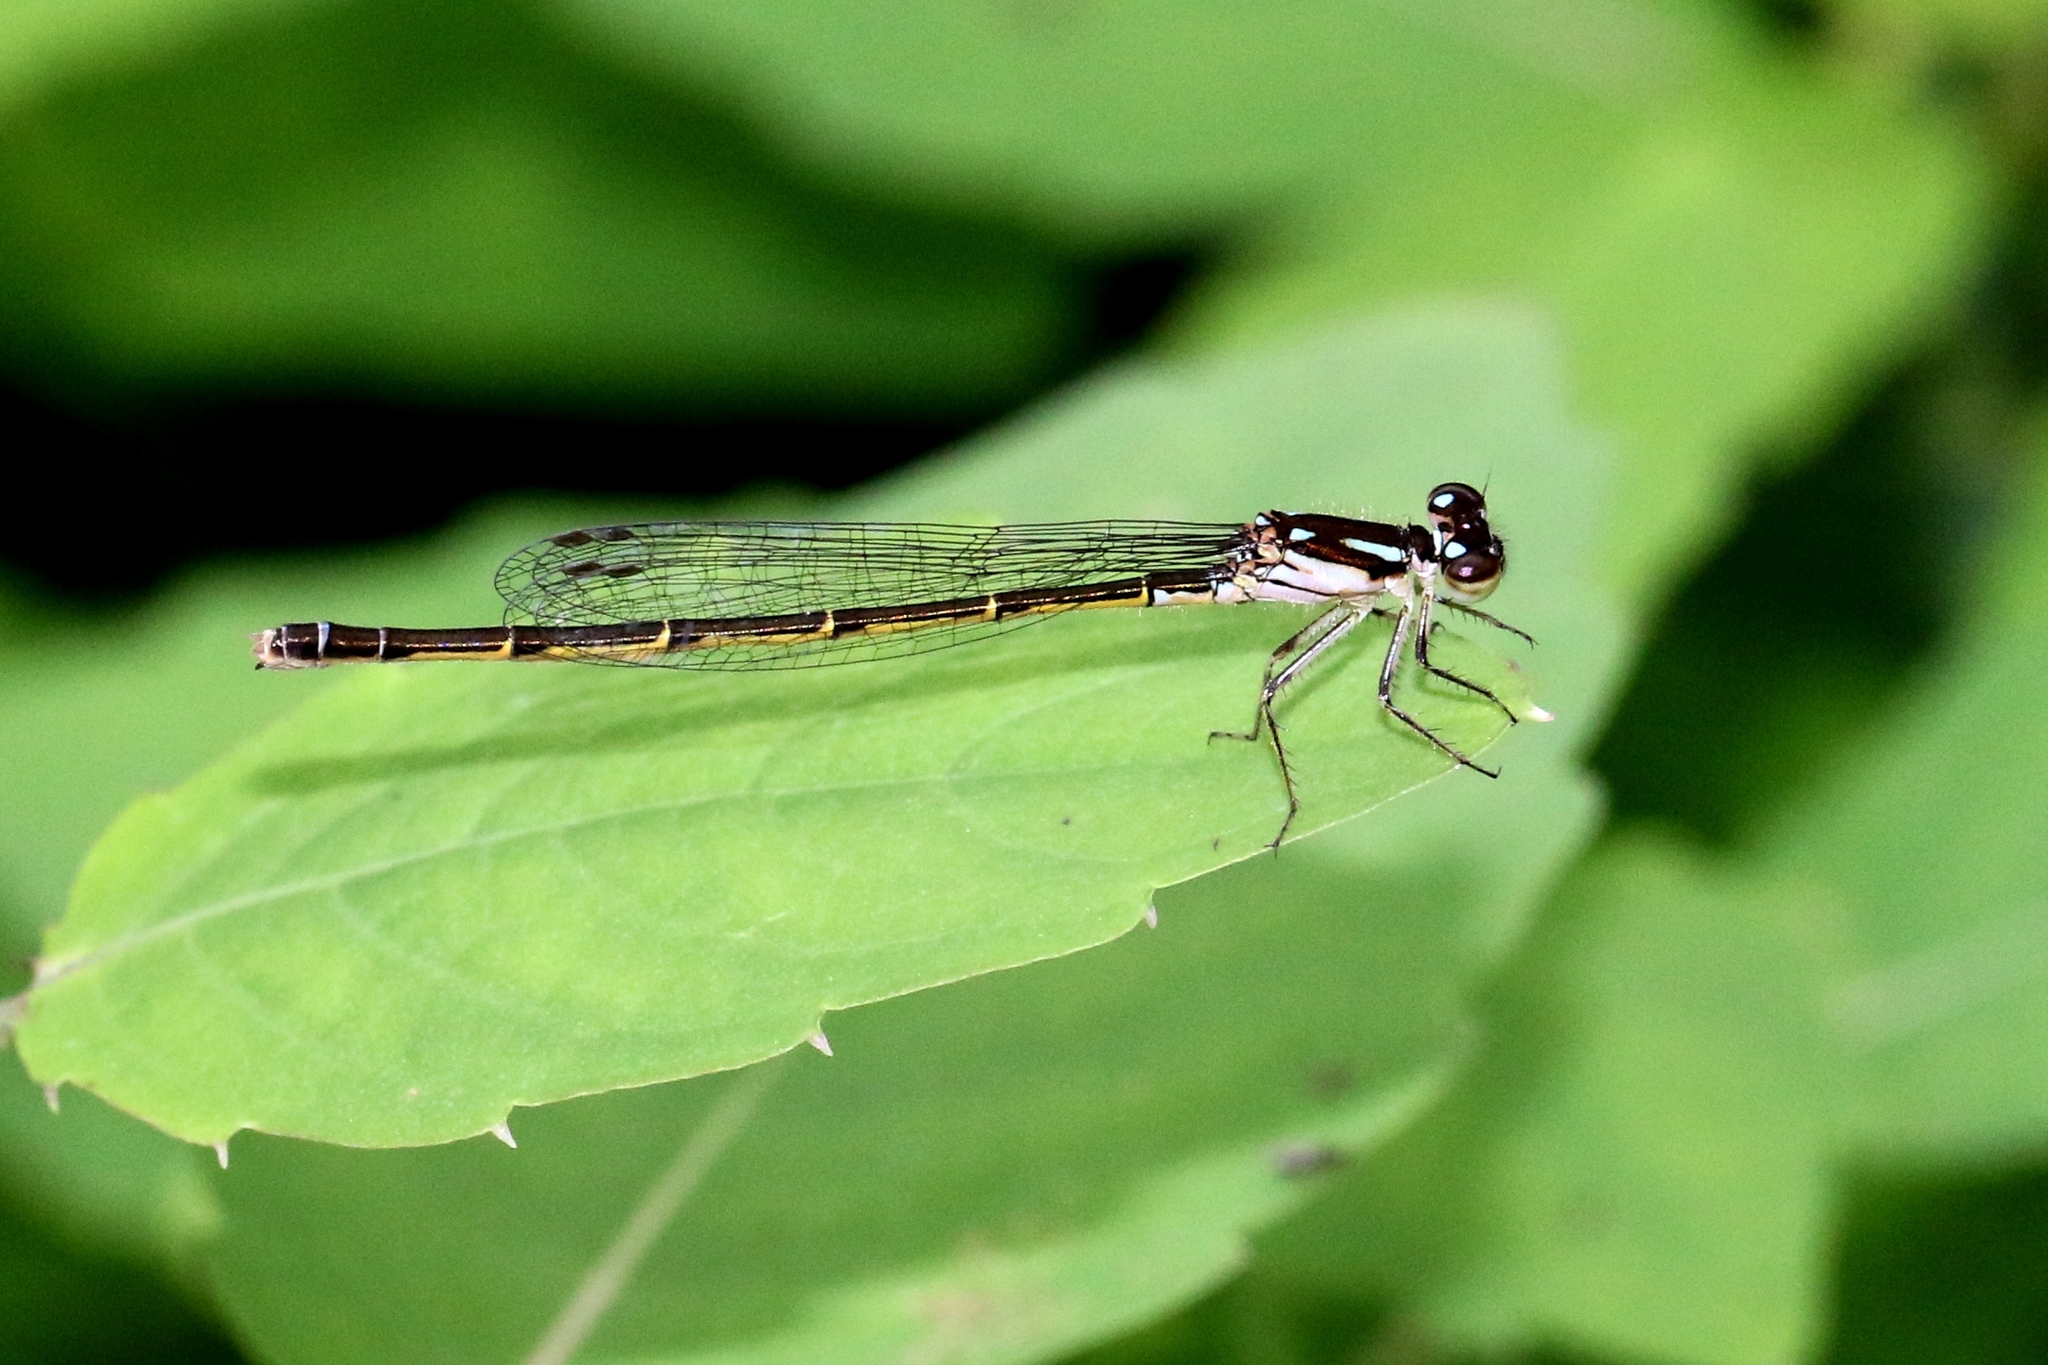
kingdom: Animalia
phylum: Arthropoda
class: Insecta
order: Odonata
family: Coenagrionidae
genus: Ischnura
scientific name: Ischnura posita
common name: Fragile forktail
